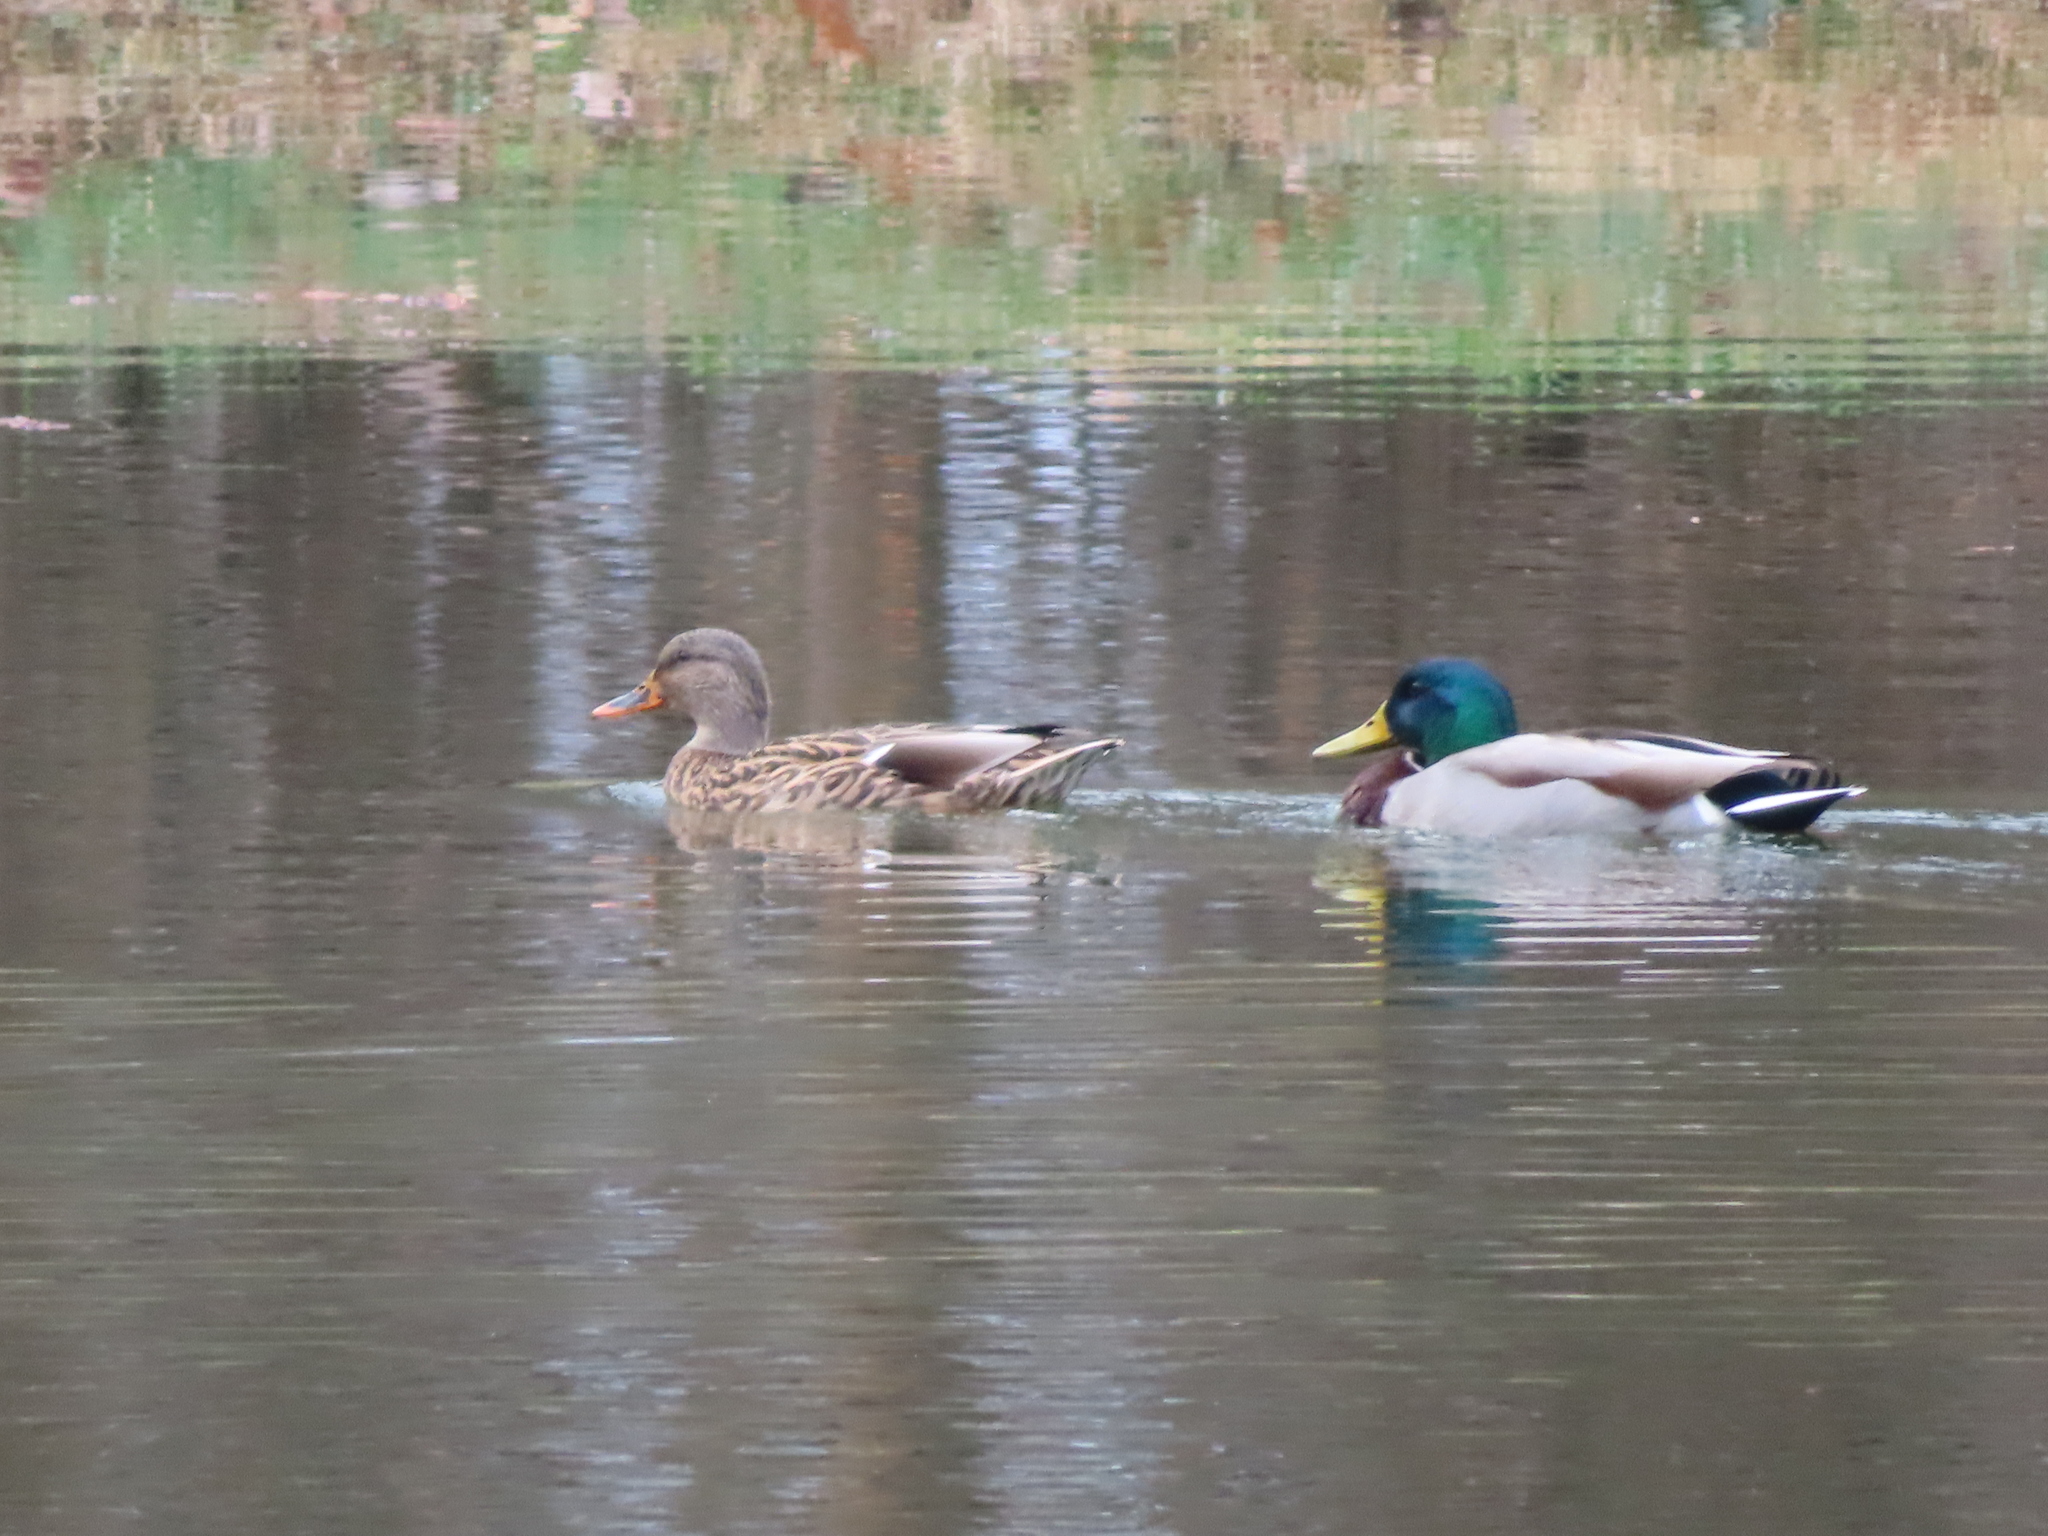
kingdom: Animalia
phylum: Chordata
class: Aves
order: Anseriformes
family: Anatidae
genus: Anas
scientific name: Anas platyrhynchos
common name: Mallard
